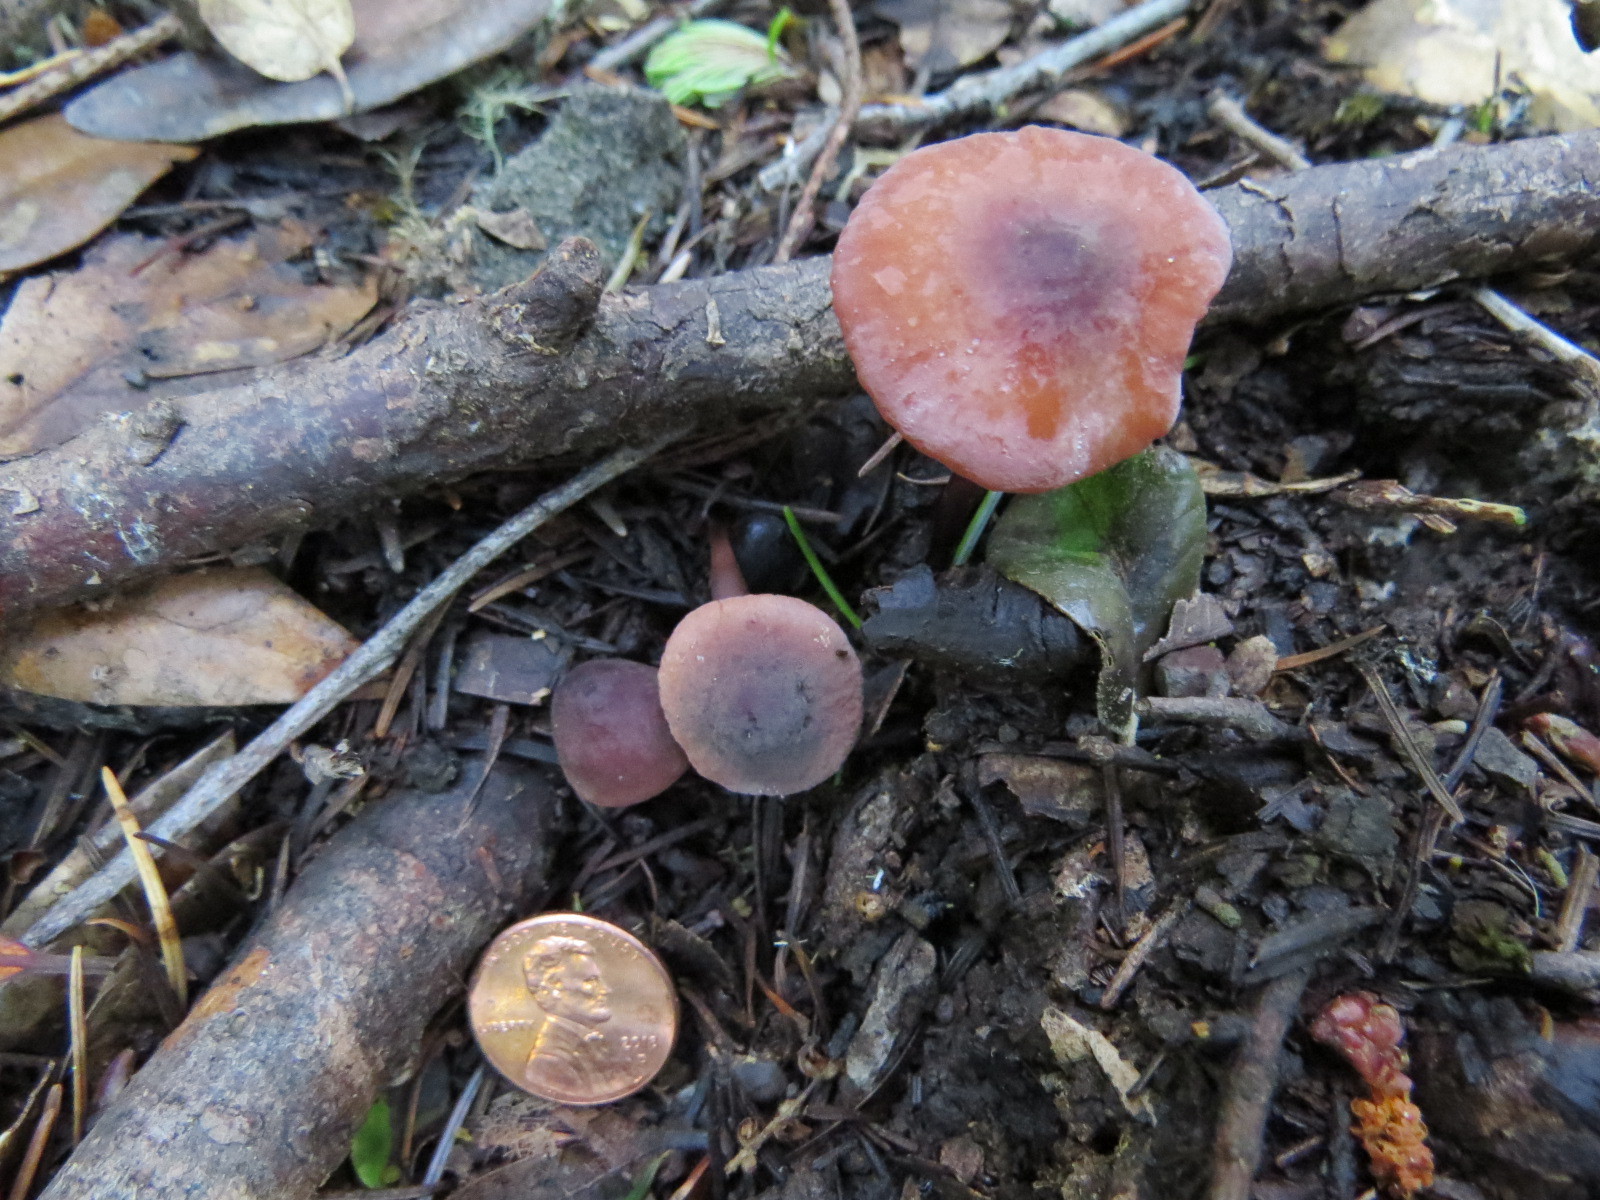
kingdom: Fungi
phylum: Basidiomycota
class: Agaricomycetes
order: Agaricales
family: Marasmiaceae
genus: Marasmius
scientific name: Marasmius plicatulus
